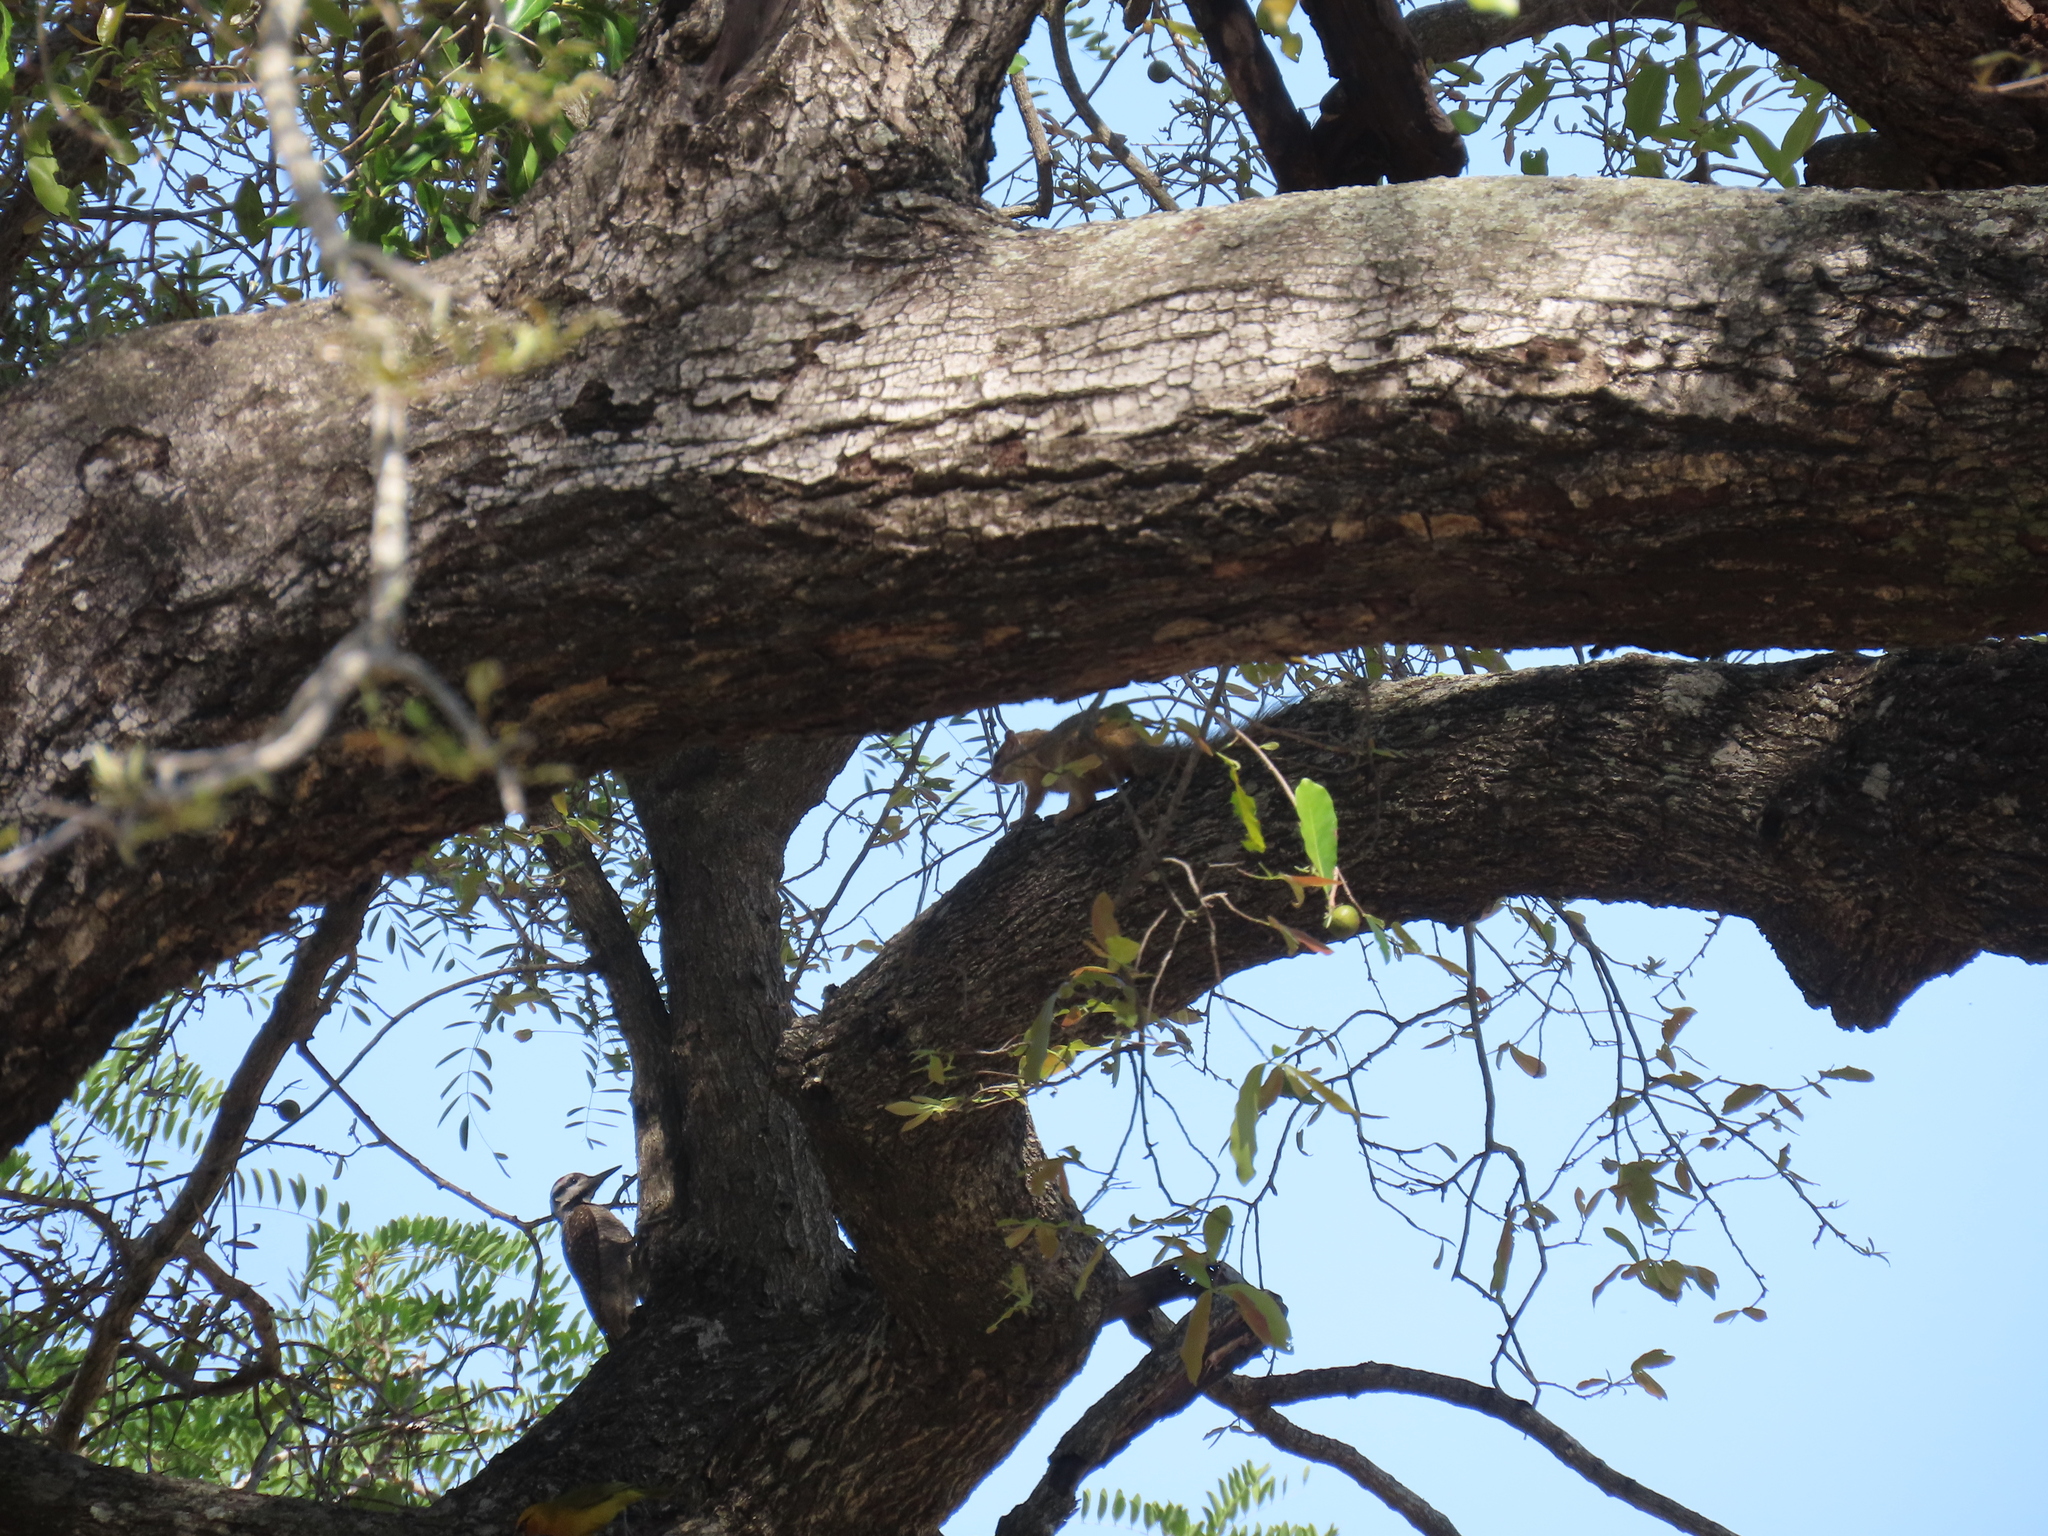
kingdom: Animalia
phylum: Chordata
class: Mammalia
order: Rodentia
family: Sciuridae
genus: Paraxerus
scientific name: Paraxerus cepapi
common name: Smith's bush squirrel
